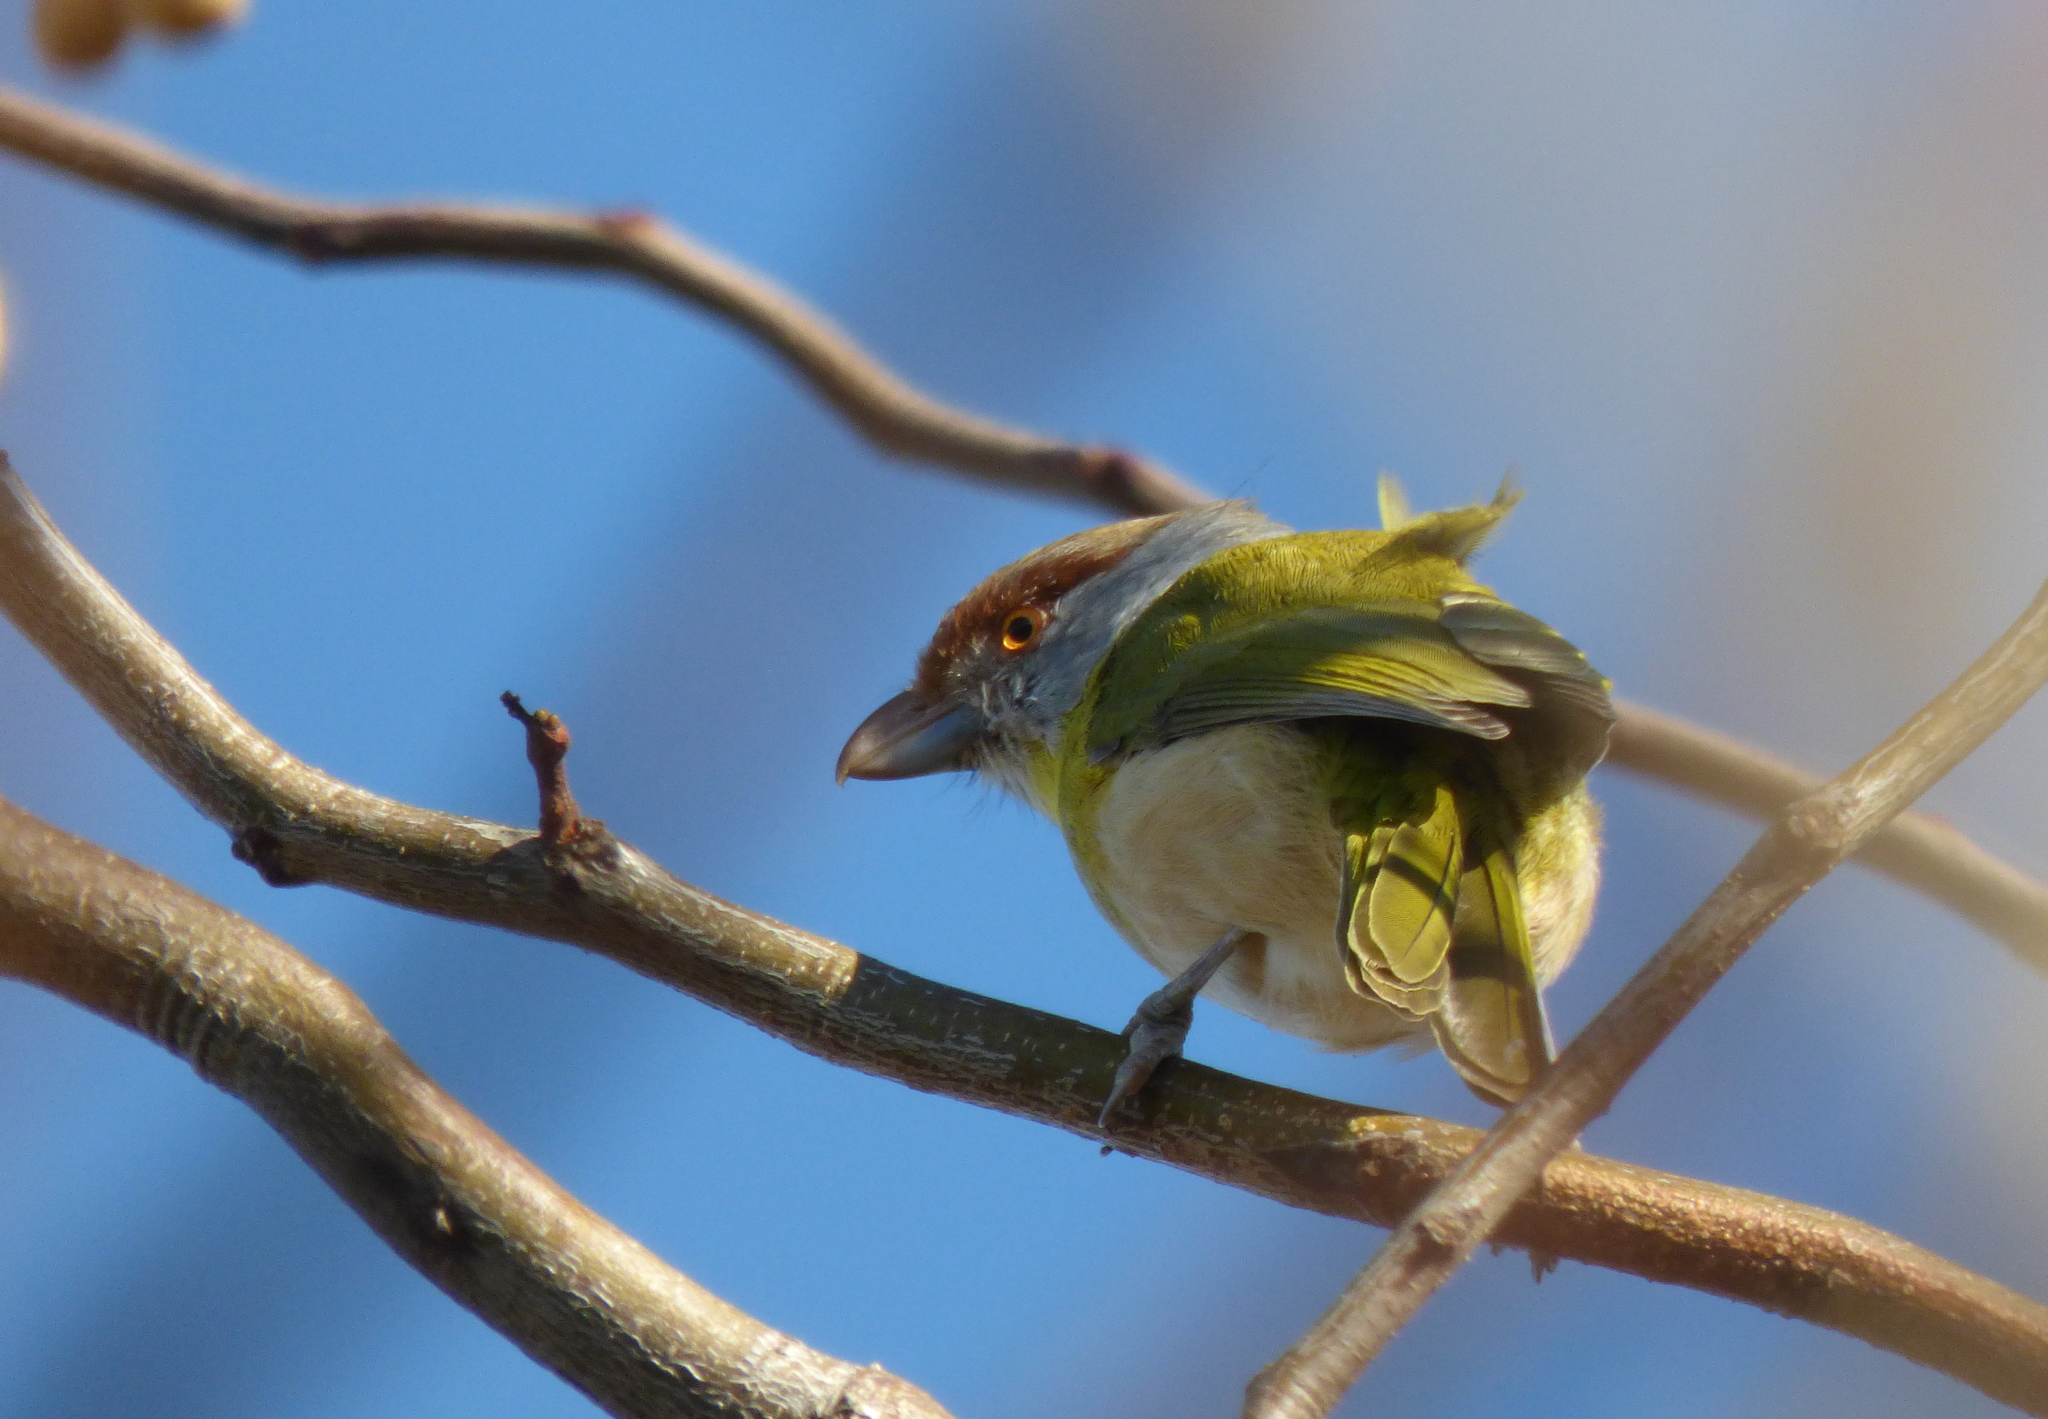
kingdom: Animalia
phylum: Chordata
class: Aves
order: Passeriformes
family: Vireonidae
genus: Cyclarhis
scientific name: Cyclarhis gujanensis
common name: Rufous-browed peppershrike
